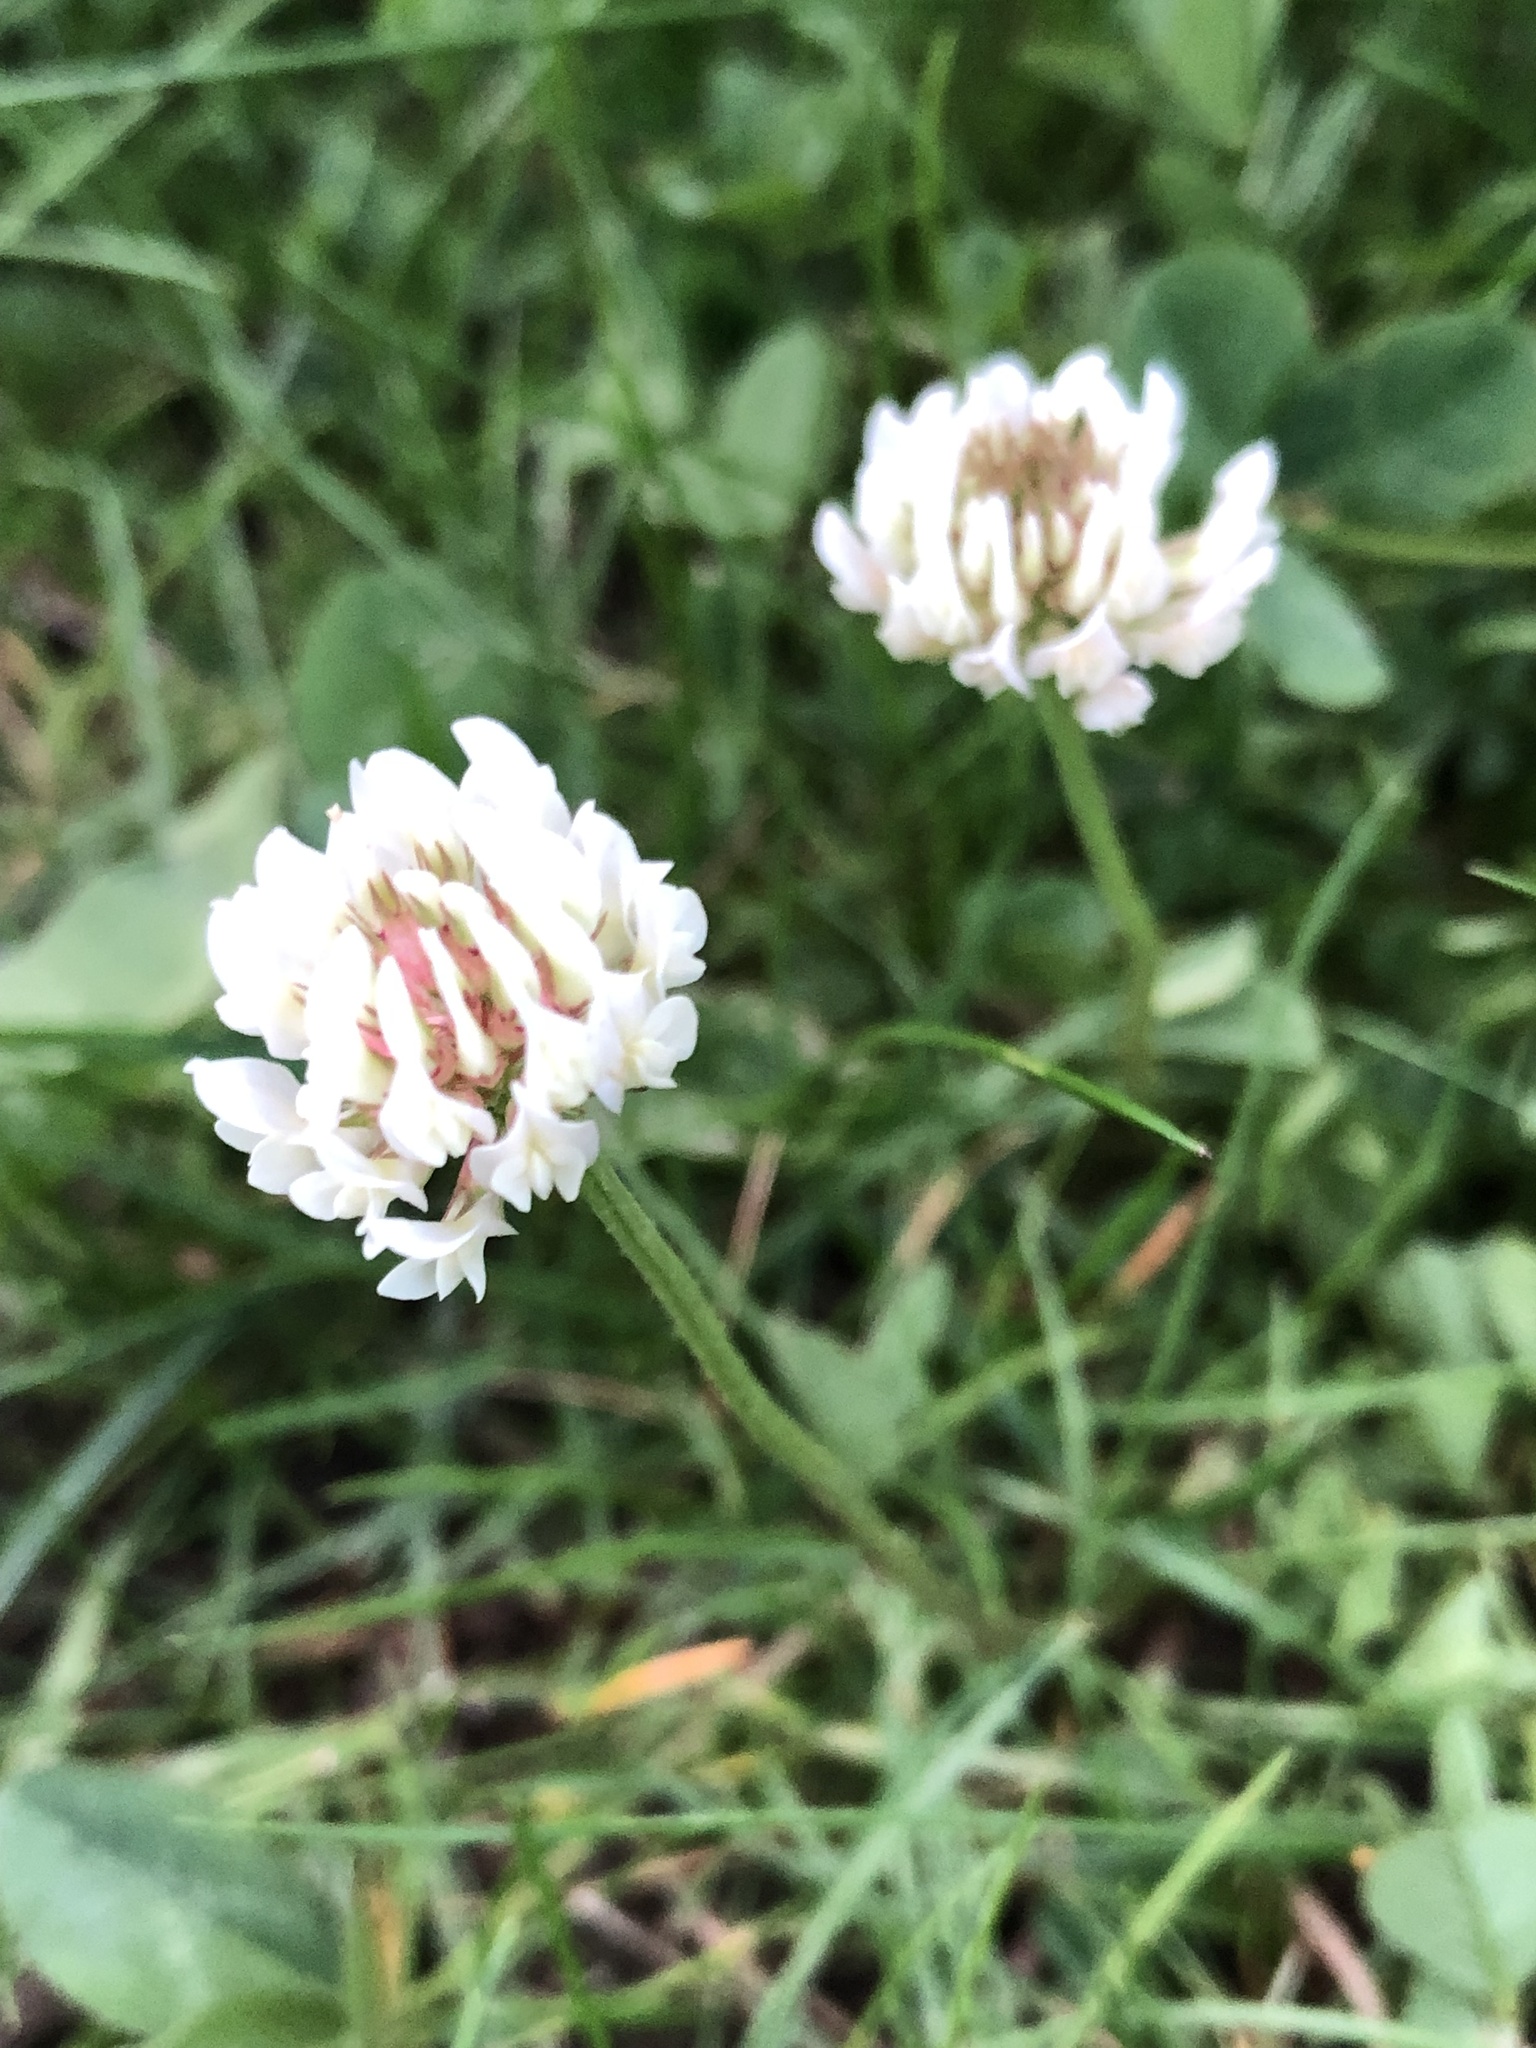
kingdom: Plantae
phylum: Tracheophyta
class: Magnoliopsida
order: Fabales
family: Fabaceae
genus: Trifolium
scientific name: Trifolium repens
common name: White clover
